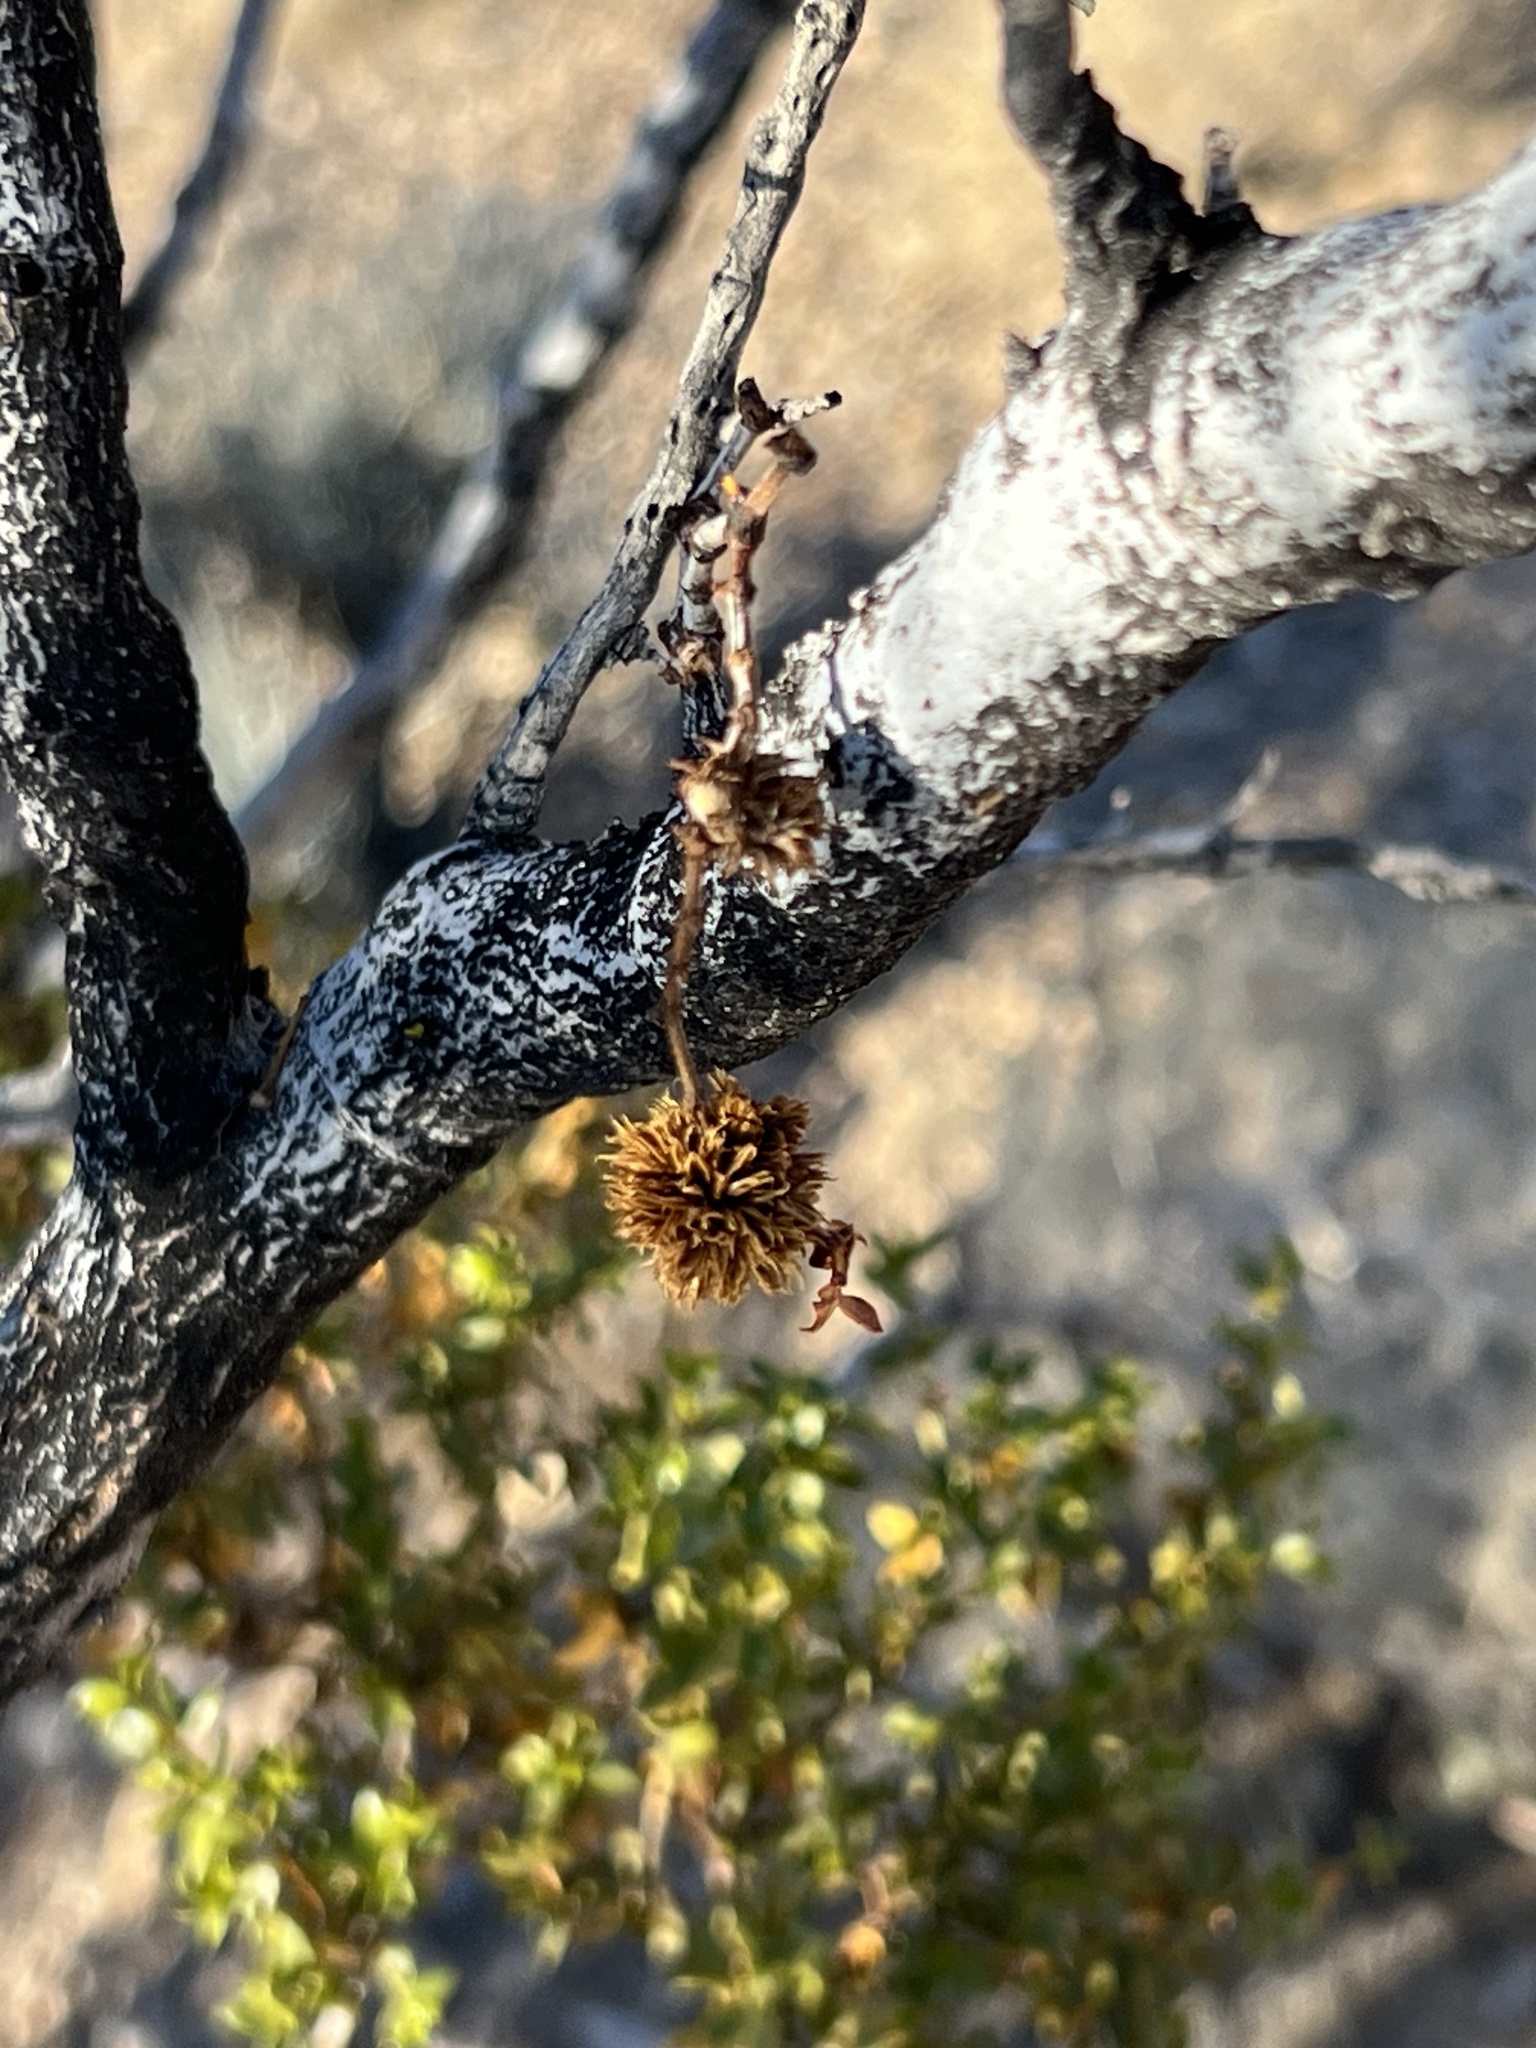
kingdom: Animalia
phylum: Arthropoda
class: Insecta
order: Diptera
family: Cecidomyiidae
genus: Asphondylia
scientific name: Asphondylia auripila
